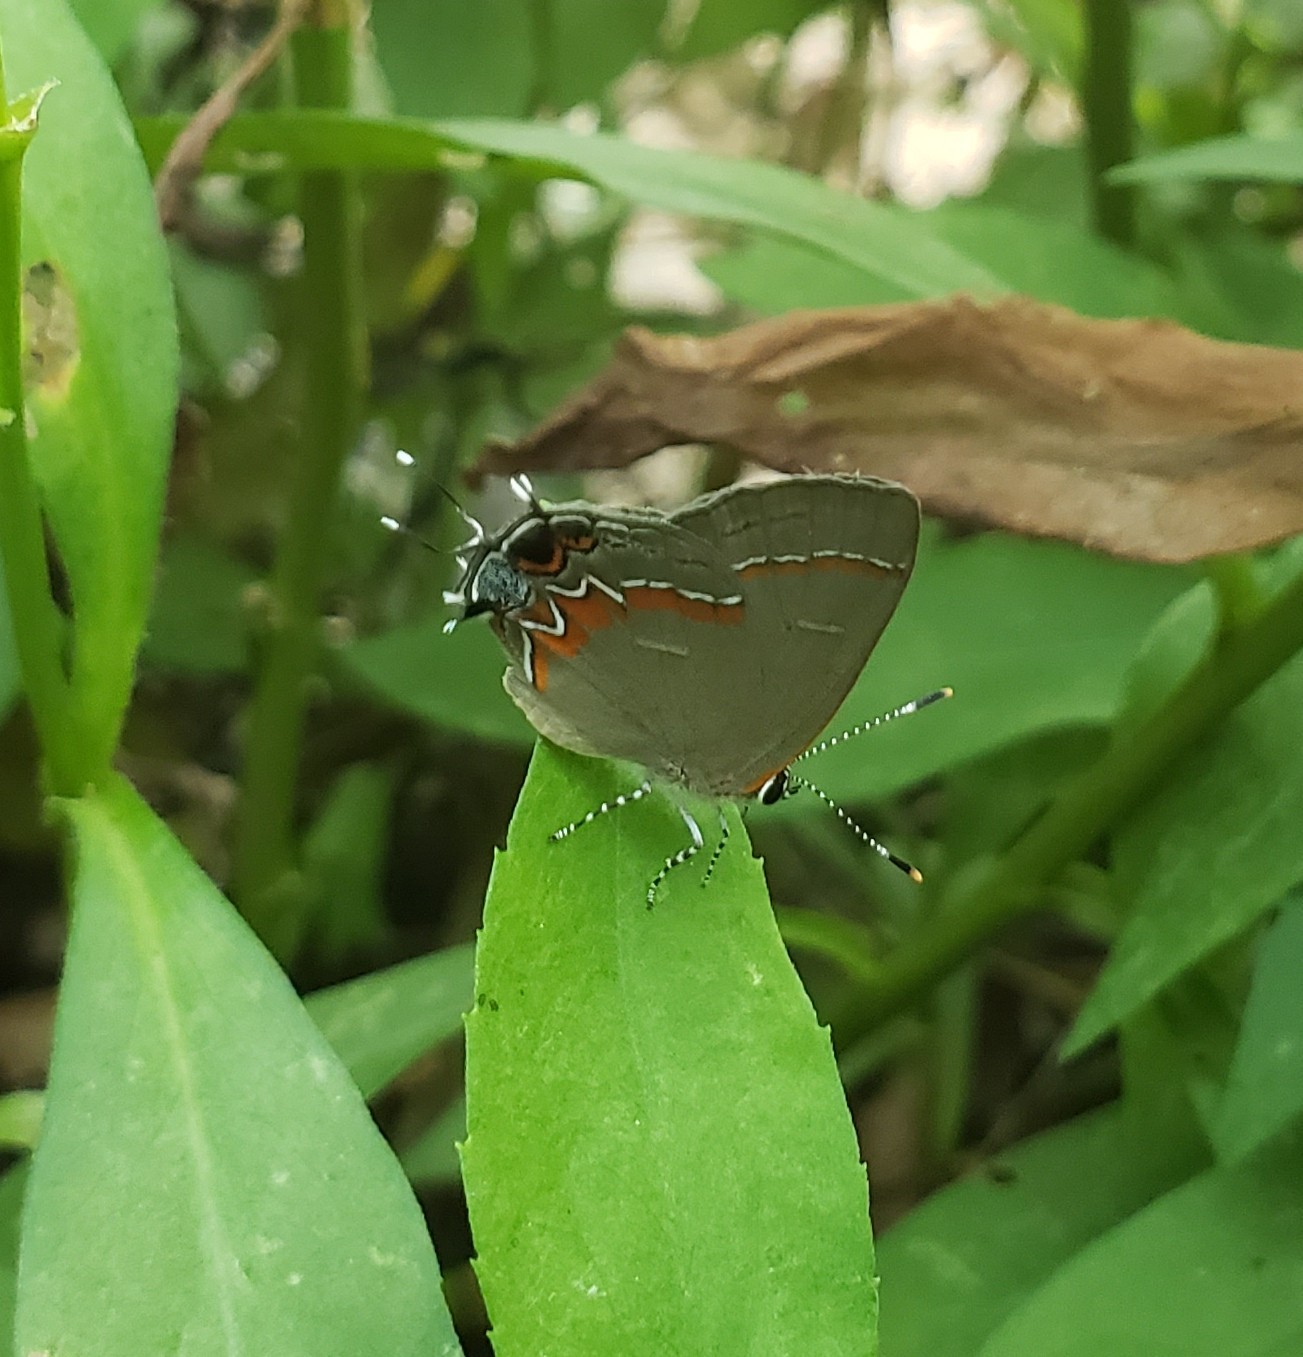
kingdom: Animalia
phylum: Arthropoda
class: Insecta
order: Lepidoptera
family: Lycaenidae
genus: Calycopis
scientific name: Calycopis cecrops
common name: Red-banded hairstreak
